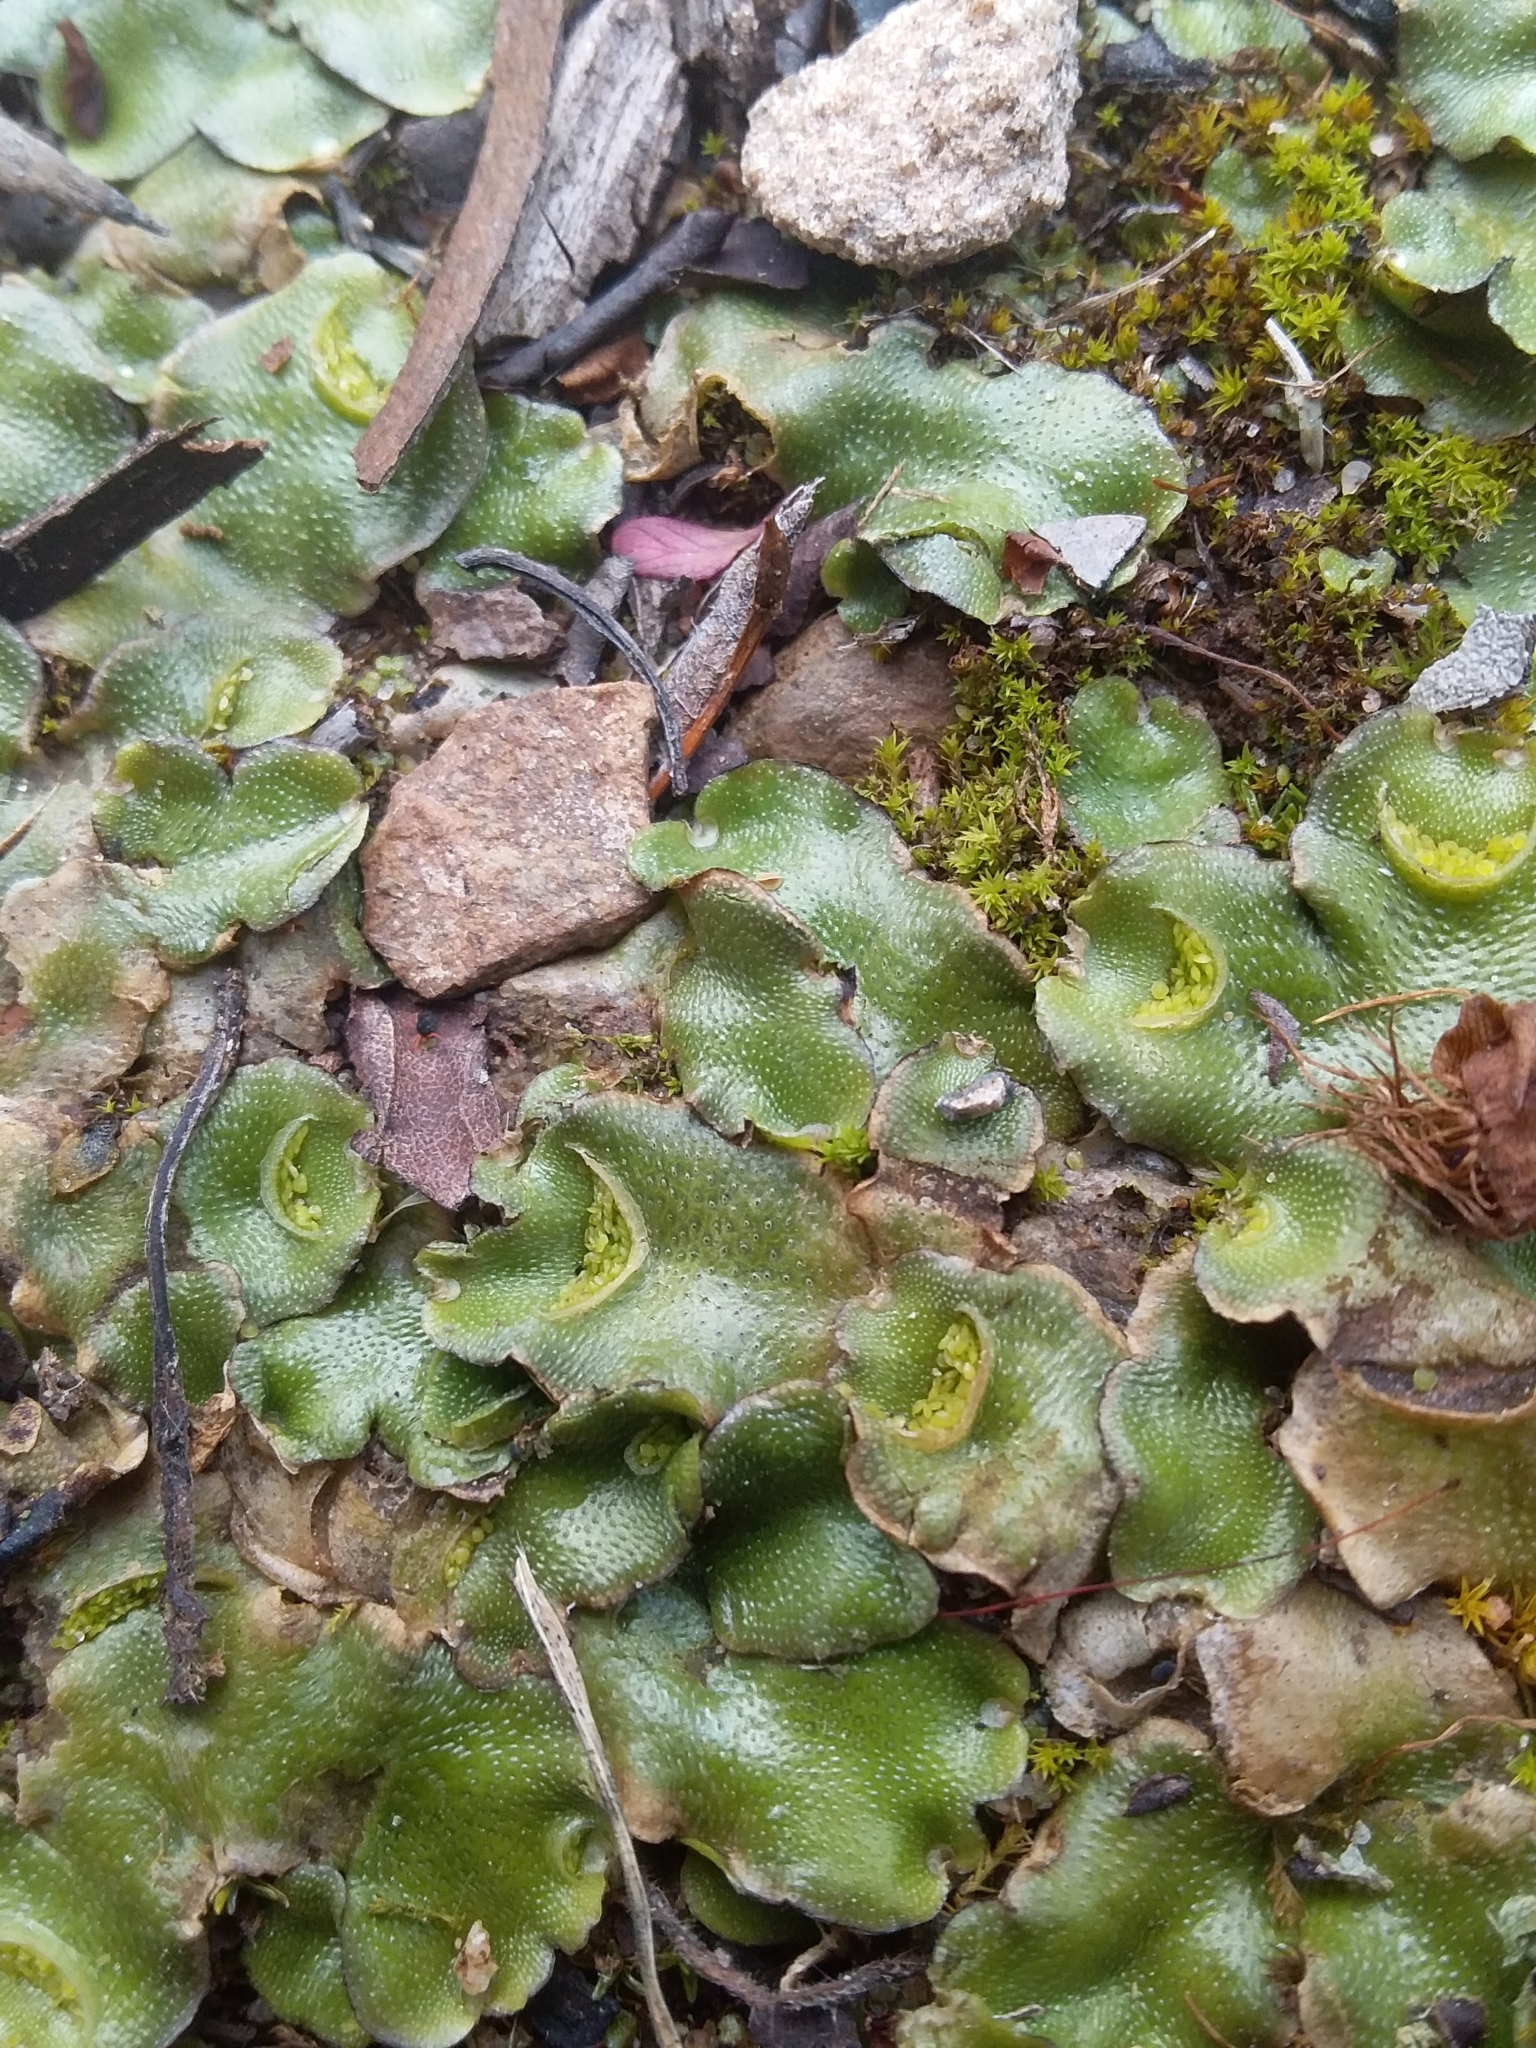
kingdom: Plantae
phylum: Marchantiophyta
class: Marchantiopsida
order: Lunulariales
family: Lunulariaceae
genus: Lunularia
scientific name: Lunularia cruciata
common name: Crescent-cup liverwort
